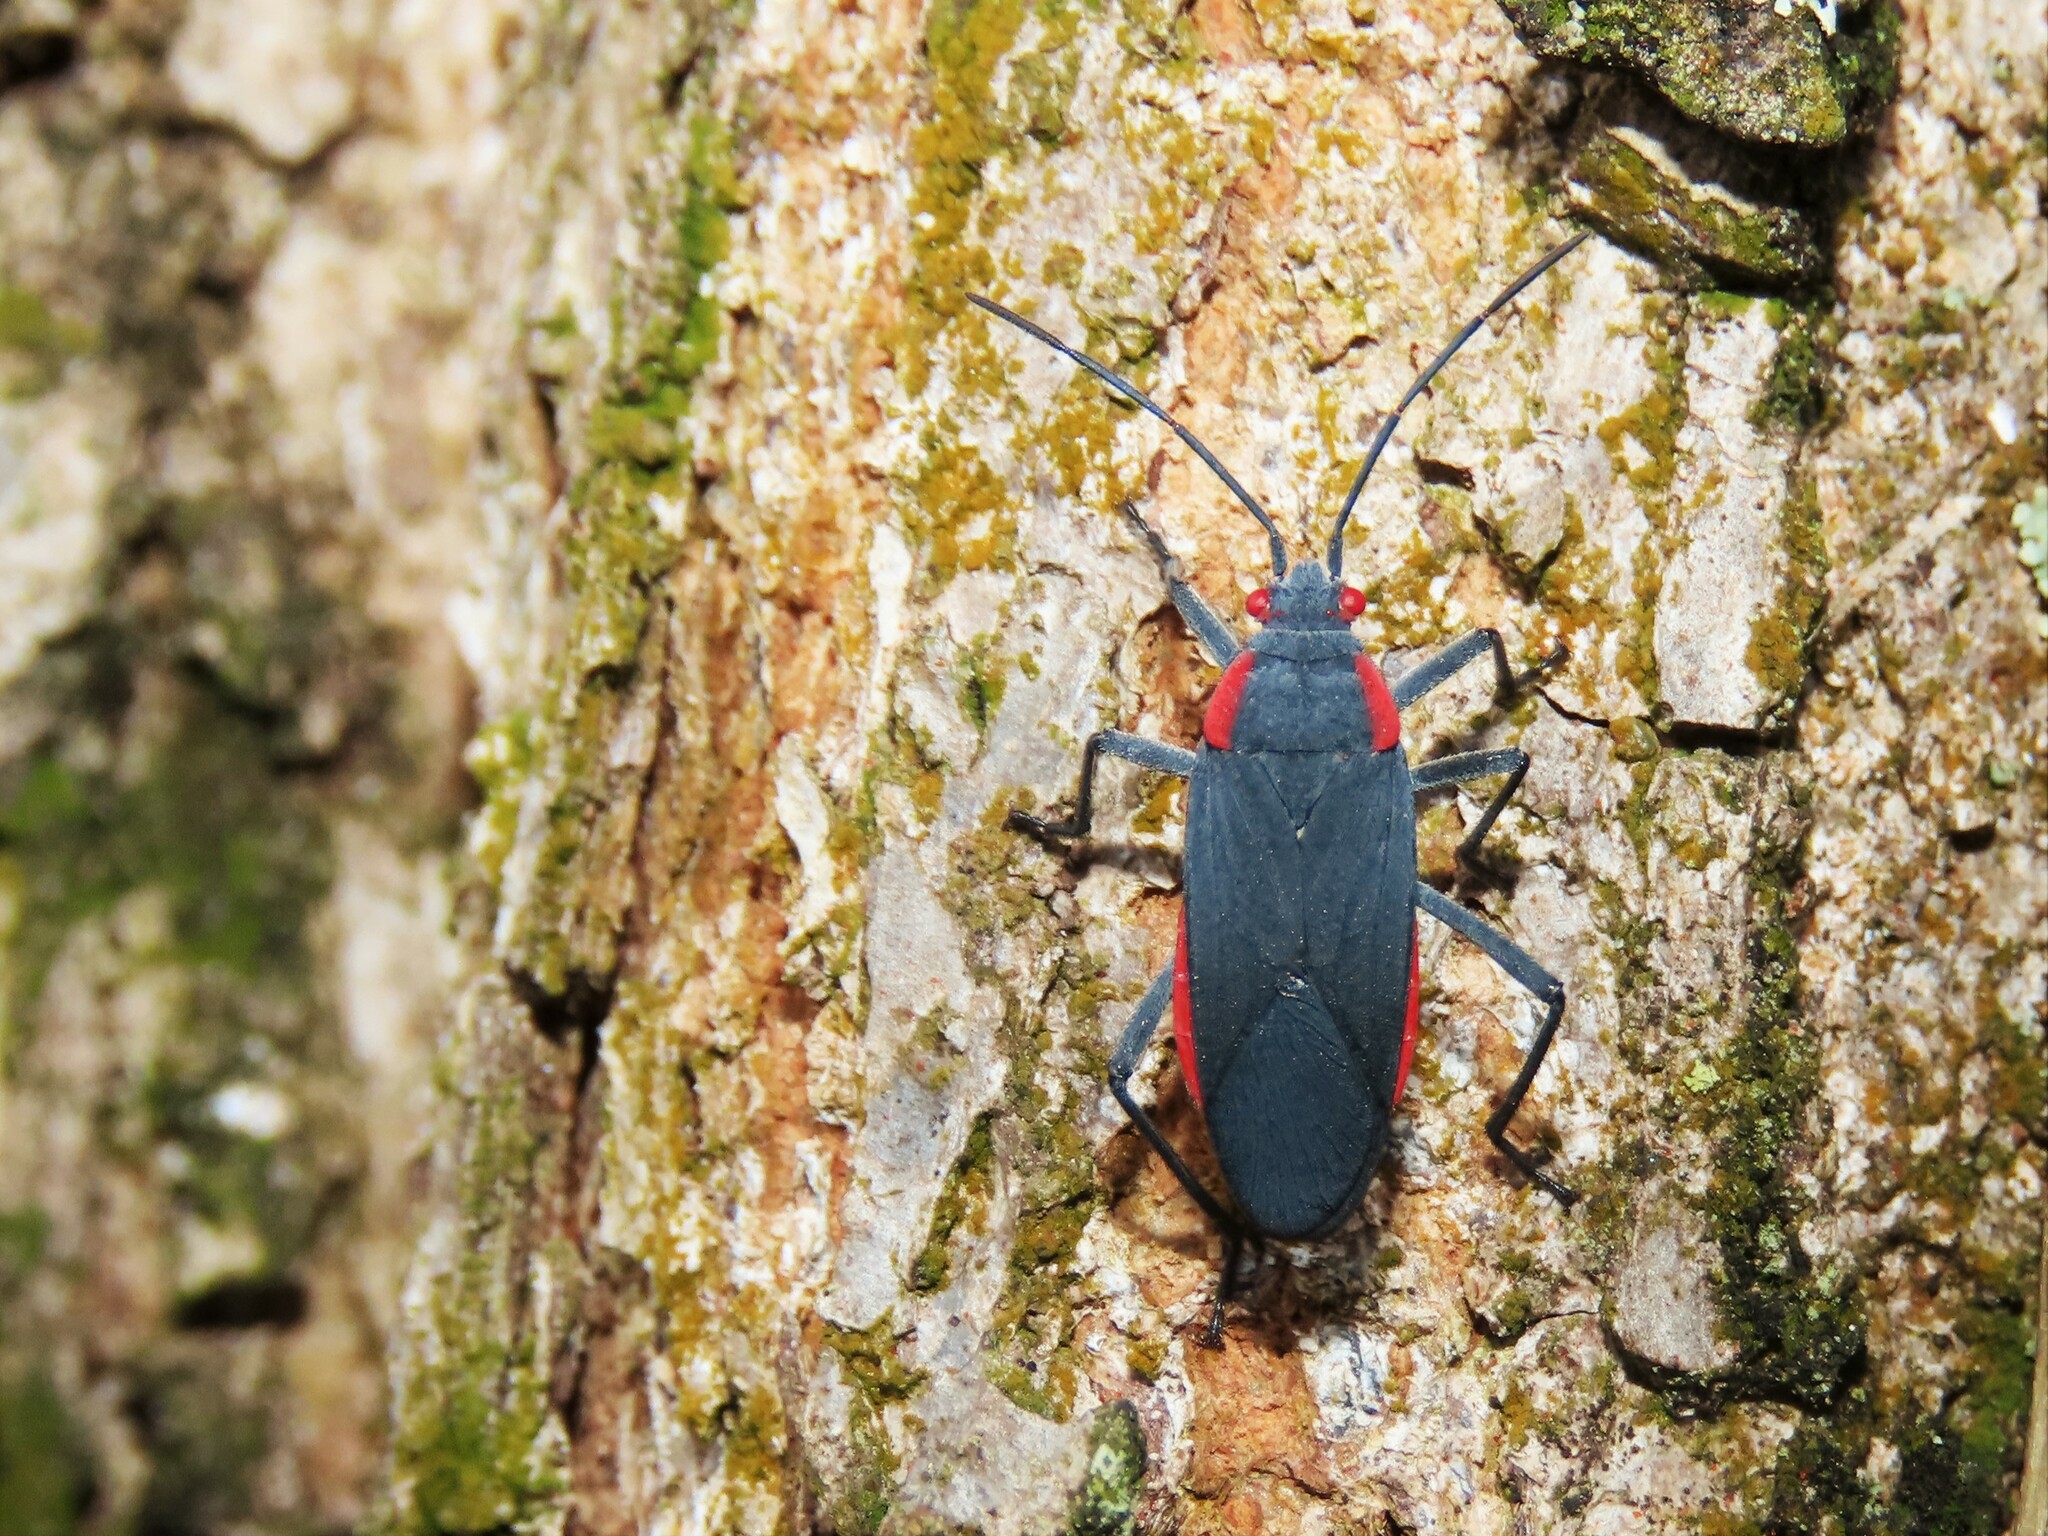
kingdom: Animalia
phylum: Arthropoda
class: Insecta
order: Hemiptera
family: Rhopalidae
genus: Jadera
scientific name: Jadera haematoloma
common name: Red-shouldered bug
